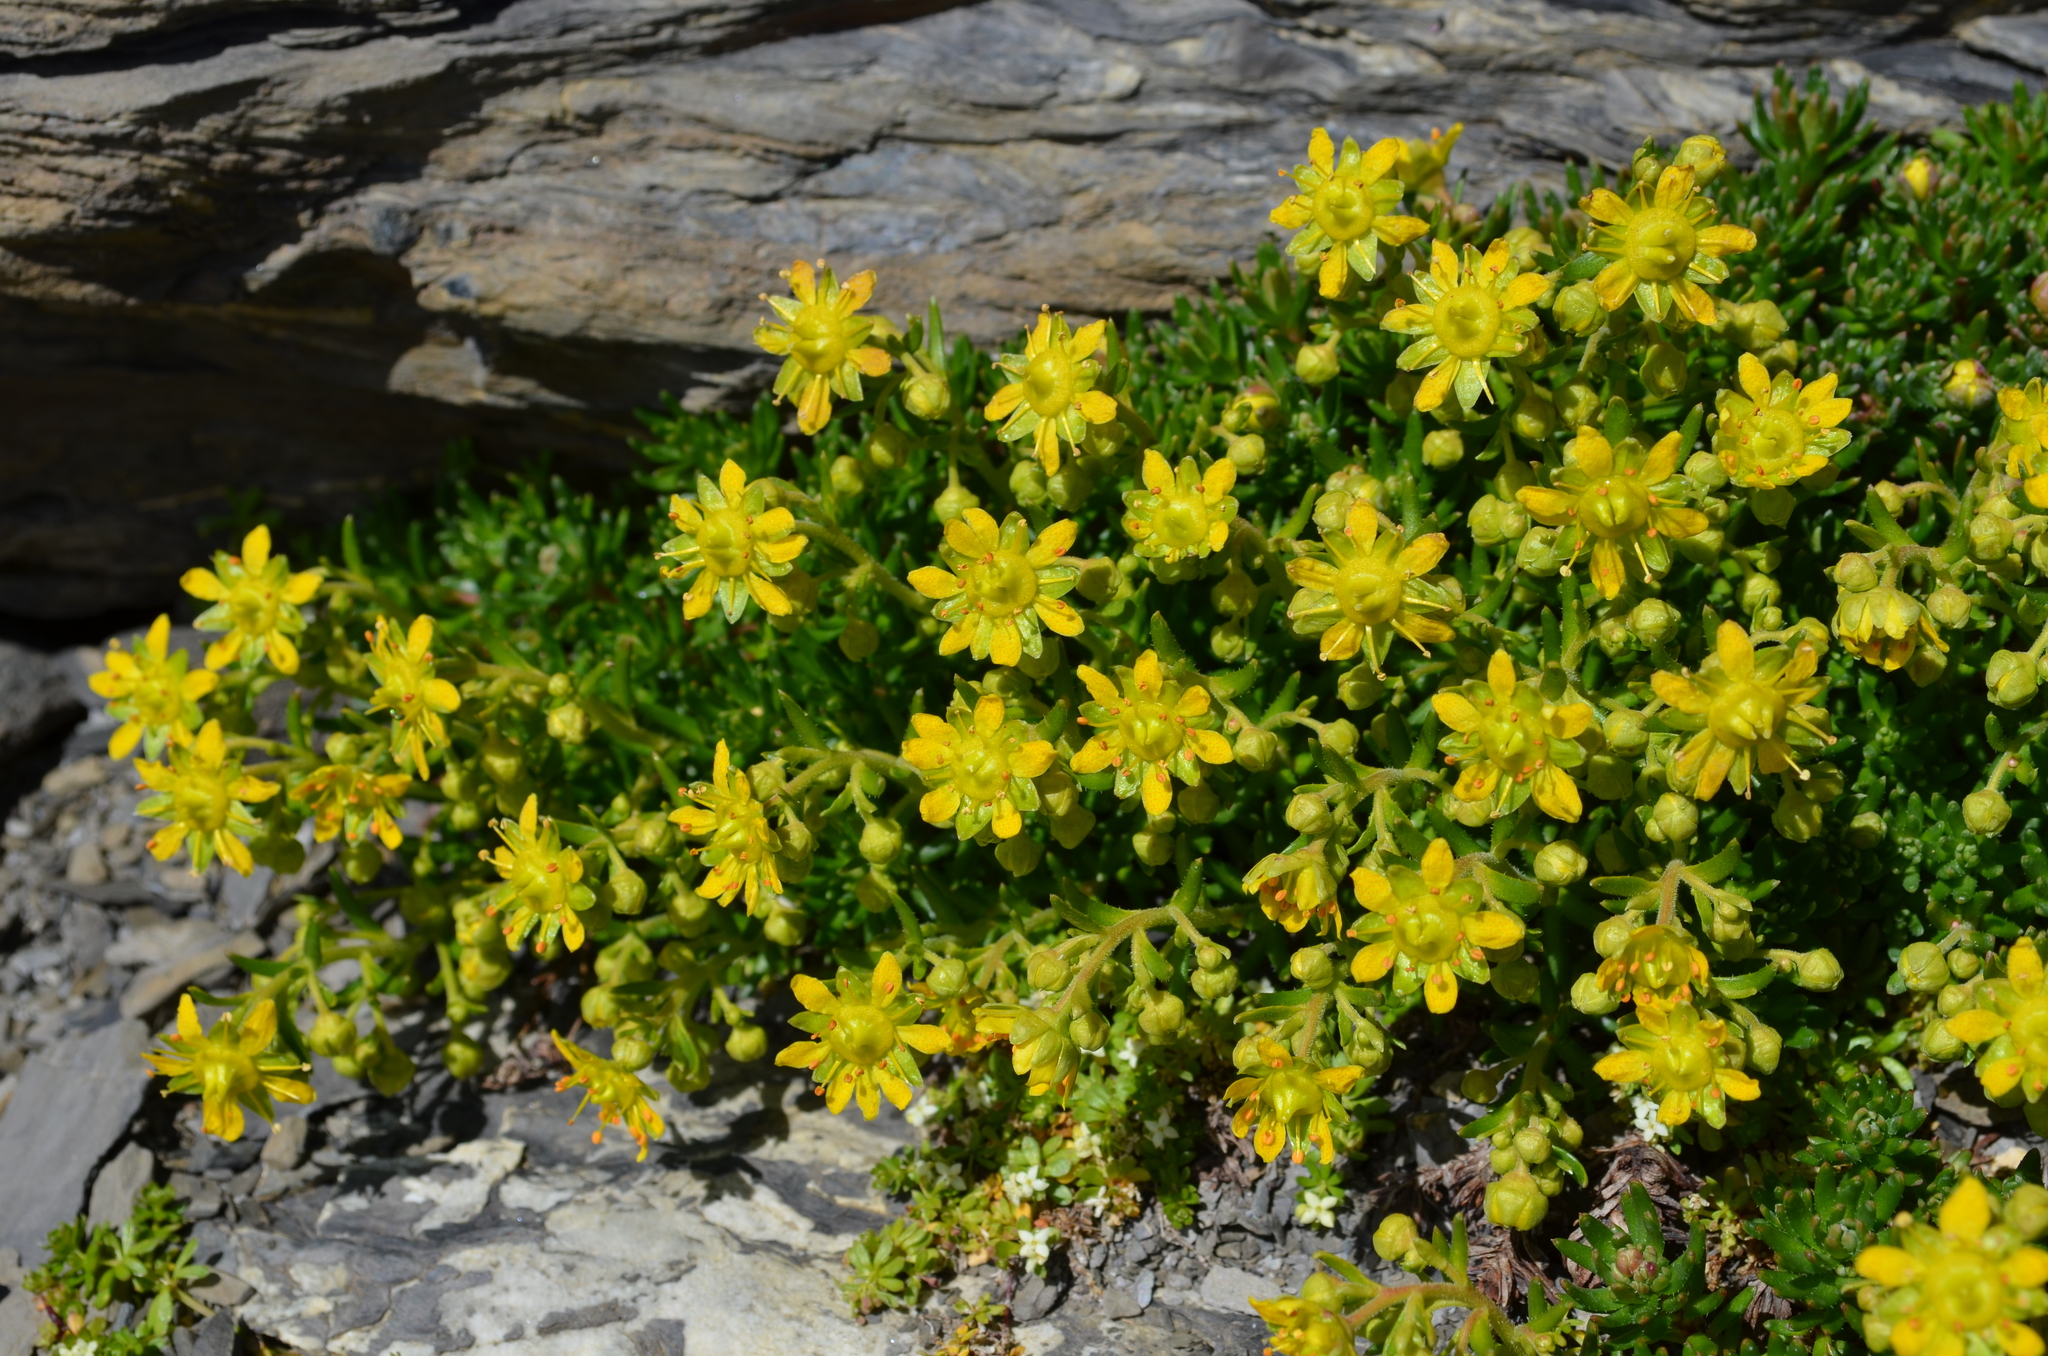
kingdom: Plantae
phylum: Tracheophyta
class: Magnoliopsida
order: Saxifragales
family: Saxifragaceae
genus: Saxifraga
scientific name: Saxifraga aizoides
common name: Yellow mountain saxifrage
